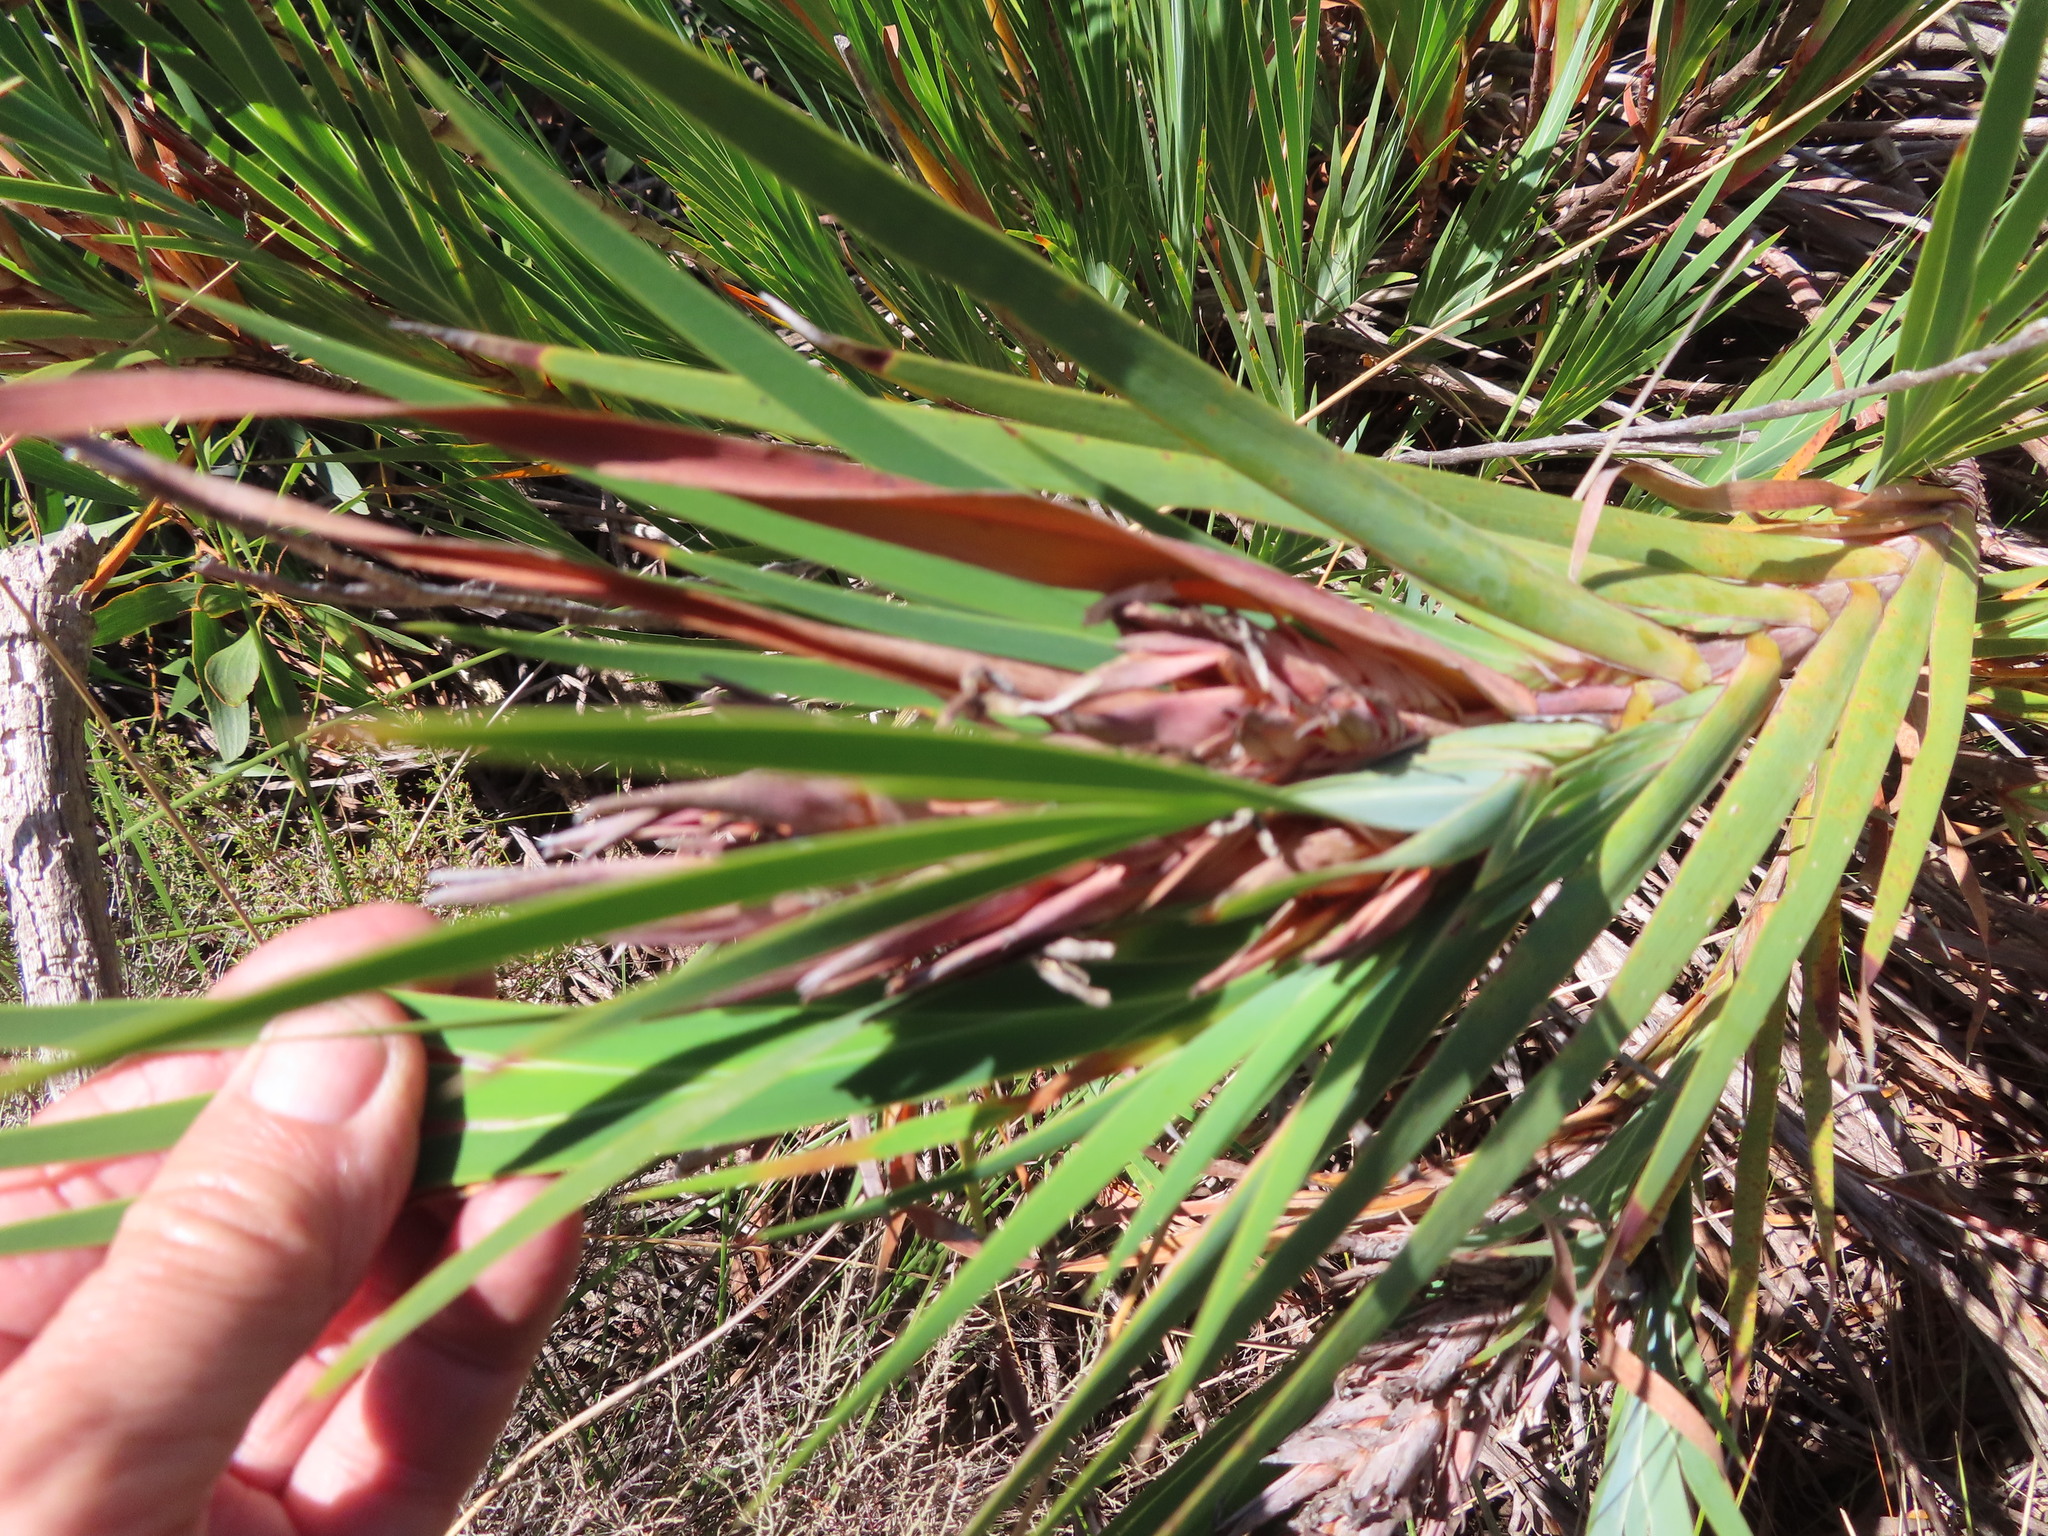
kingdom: Plantae
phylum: Tracheophyta
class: Liliopsida
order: Asparagales
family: Iridaceae
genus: Witsenia
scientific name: Witsenia maura
